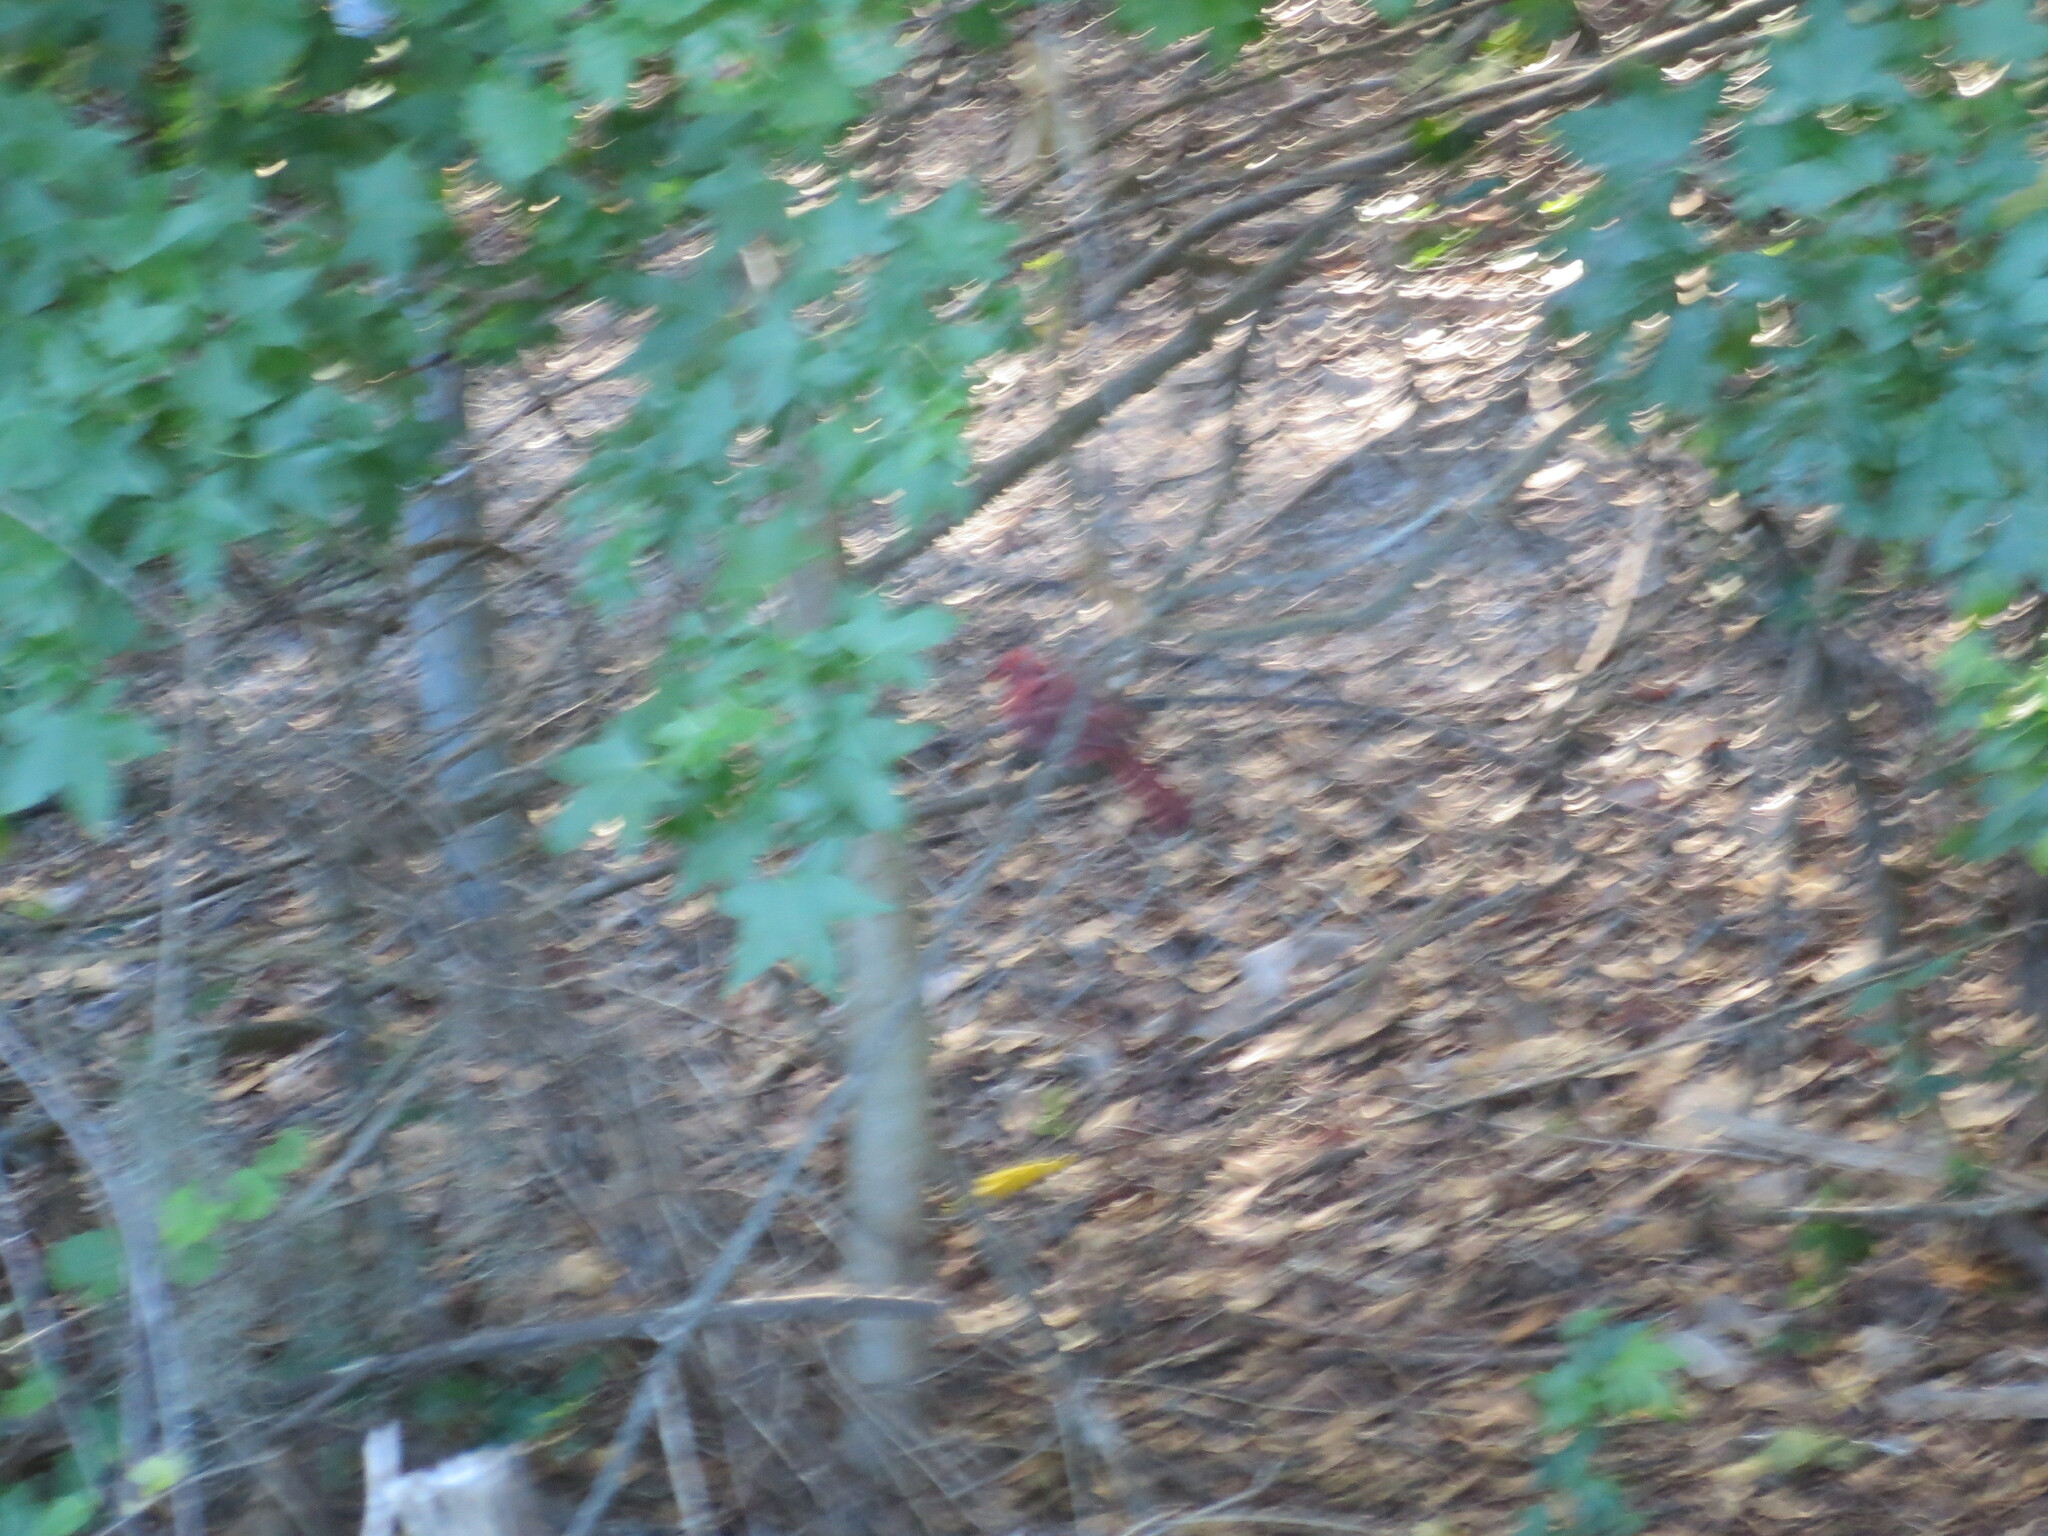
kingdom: Plantae
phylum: Tracheophyta
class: Magnoliopsida
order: Saxifragales
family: Altingiaceae
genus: Liquidambar
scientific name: Liquidambar styraciflua
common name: Sweet gum
